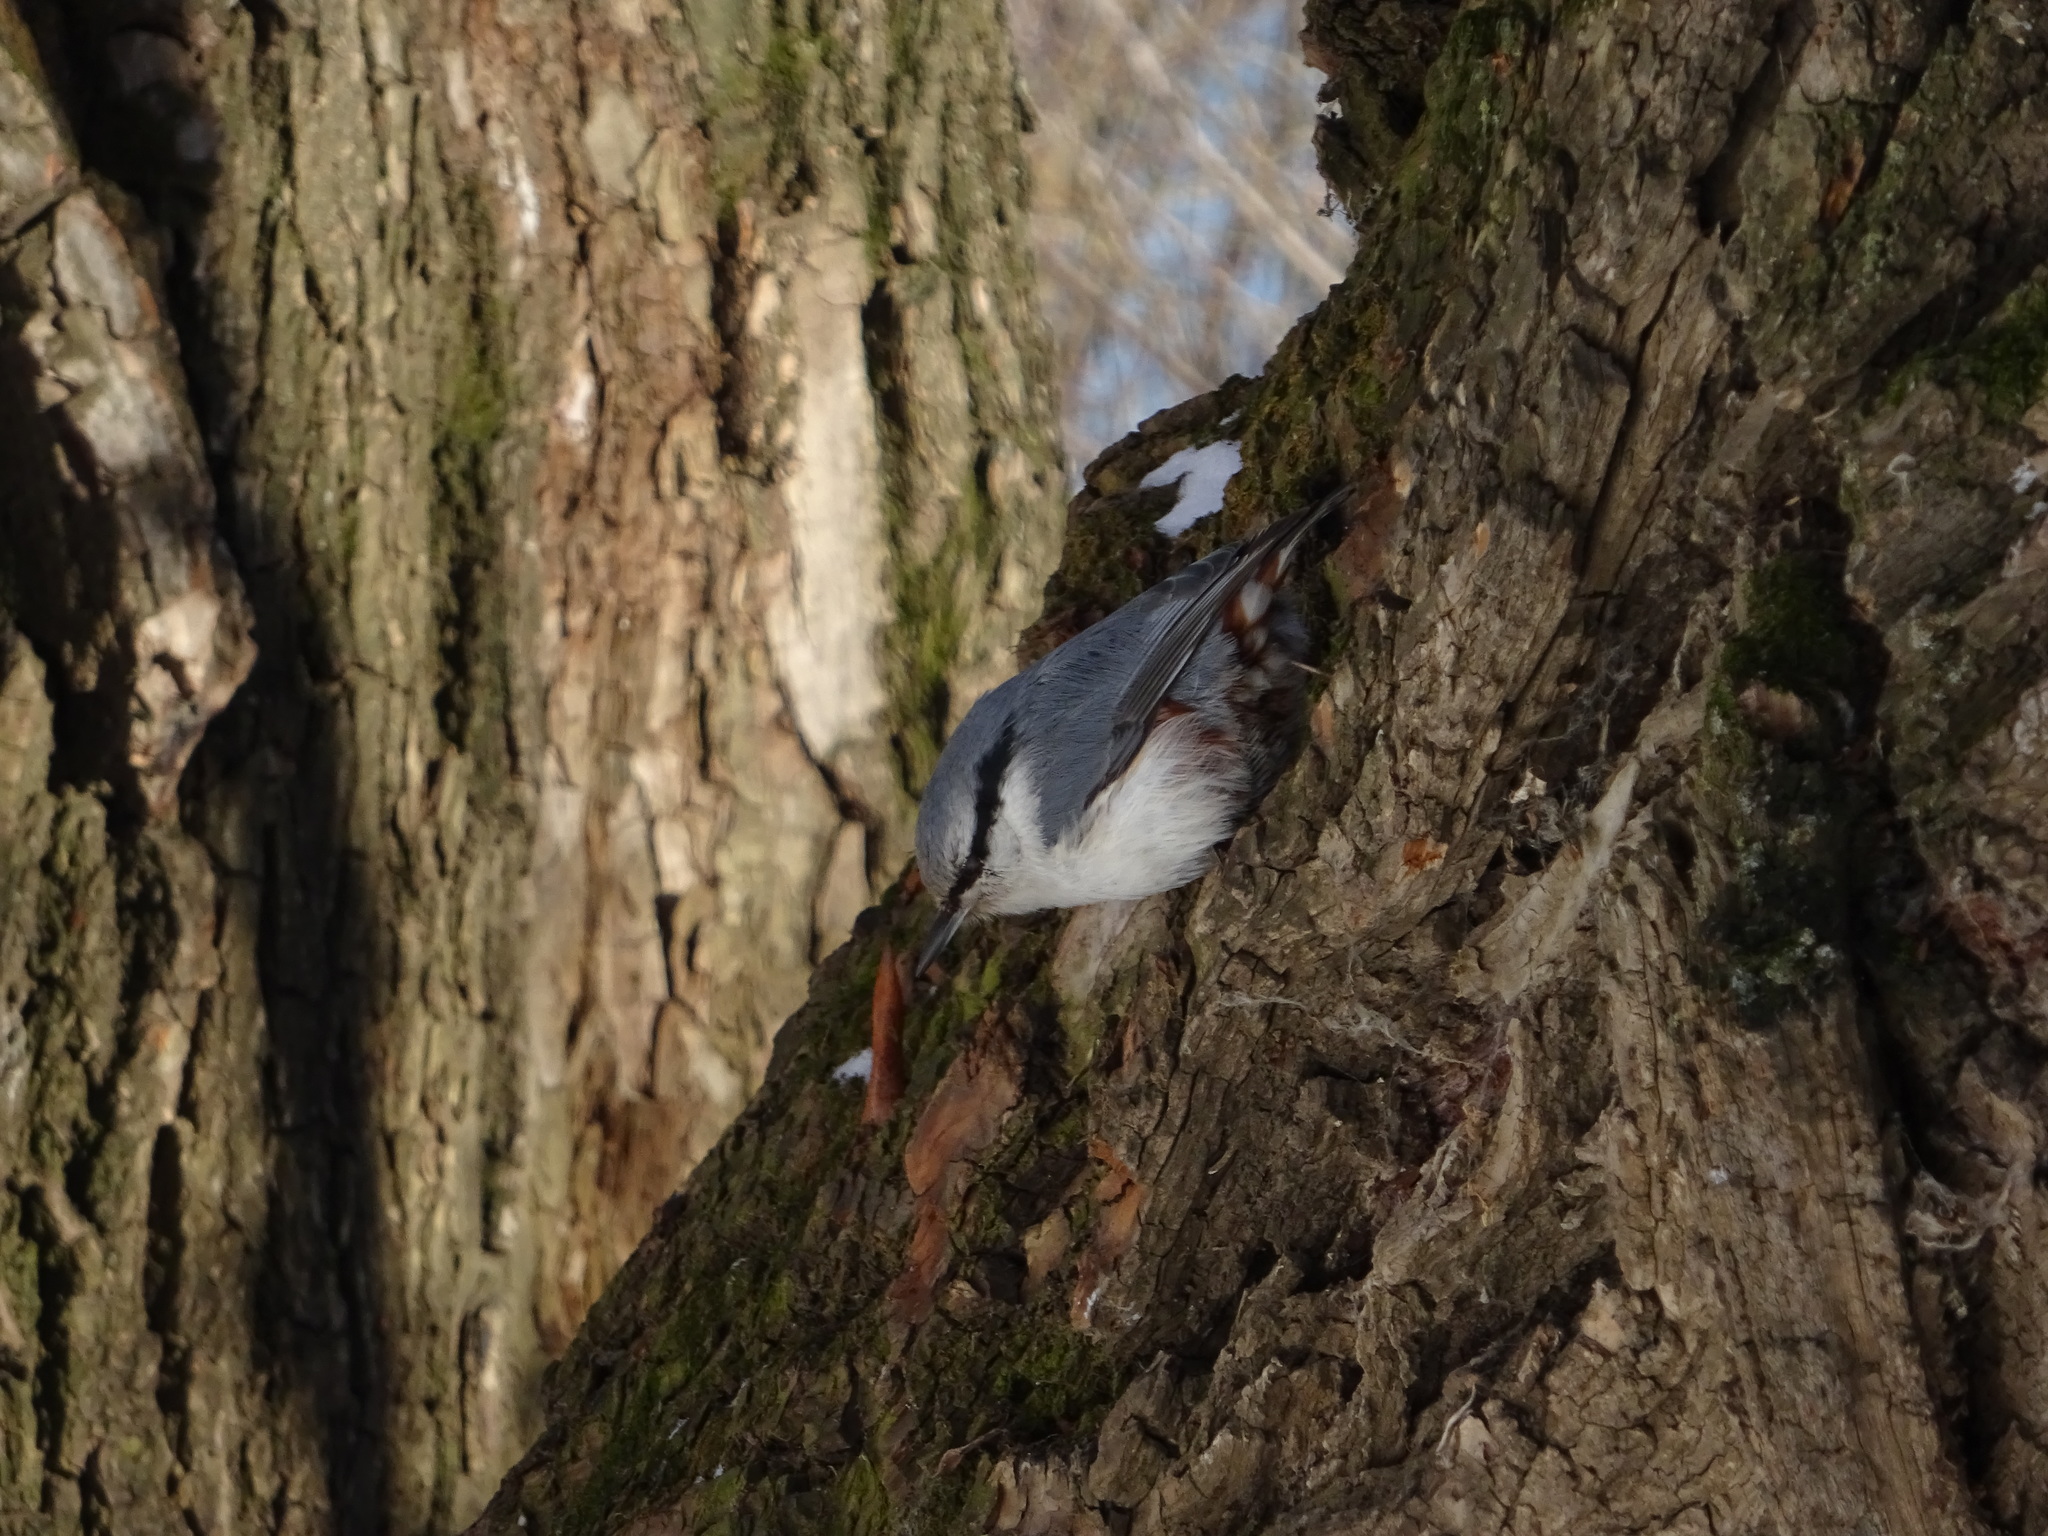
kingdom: Animalia
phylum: Chordata
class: Aves
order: Passeriformes
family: Sittidae
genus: Sitta
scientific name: Sitta europaea
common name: Eurasian nuthatch
